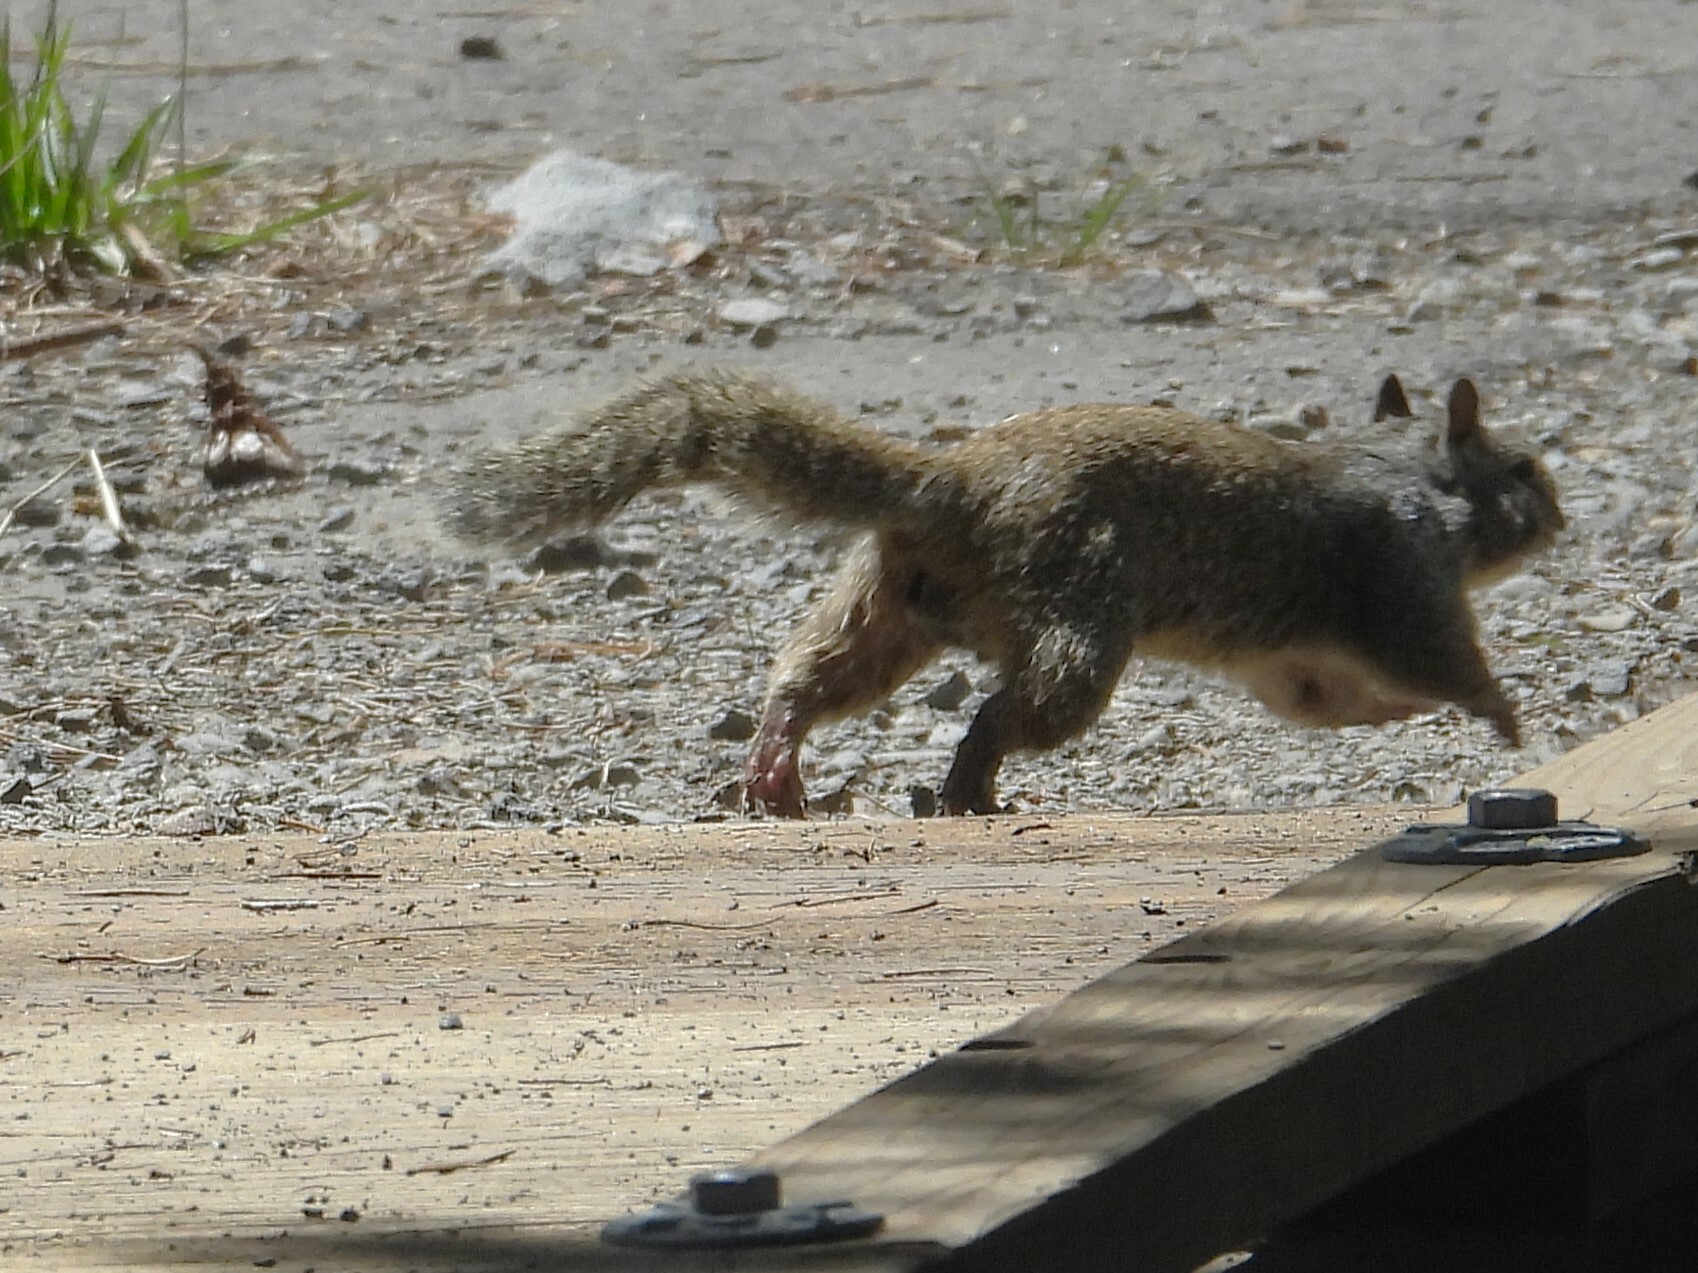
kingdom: Animalia
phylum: Chordata
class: Mammalia
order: Rodentia
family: Sciuridae
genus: Otospermophilus
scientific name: Otospermophilus beecheyi
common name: California ground squirrel
